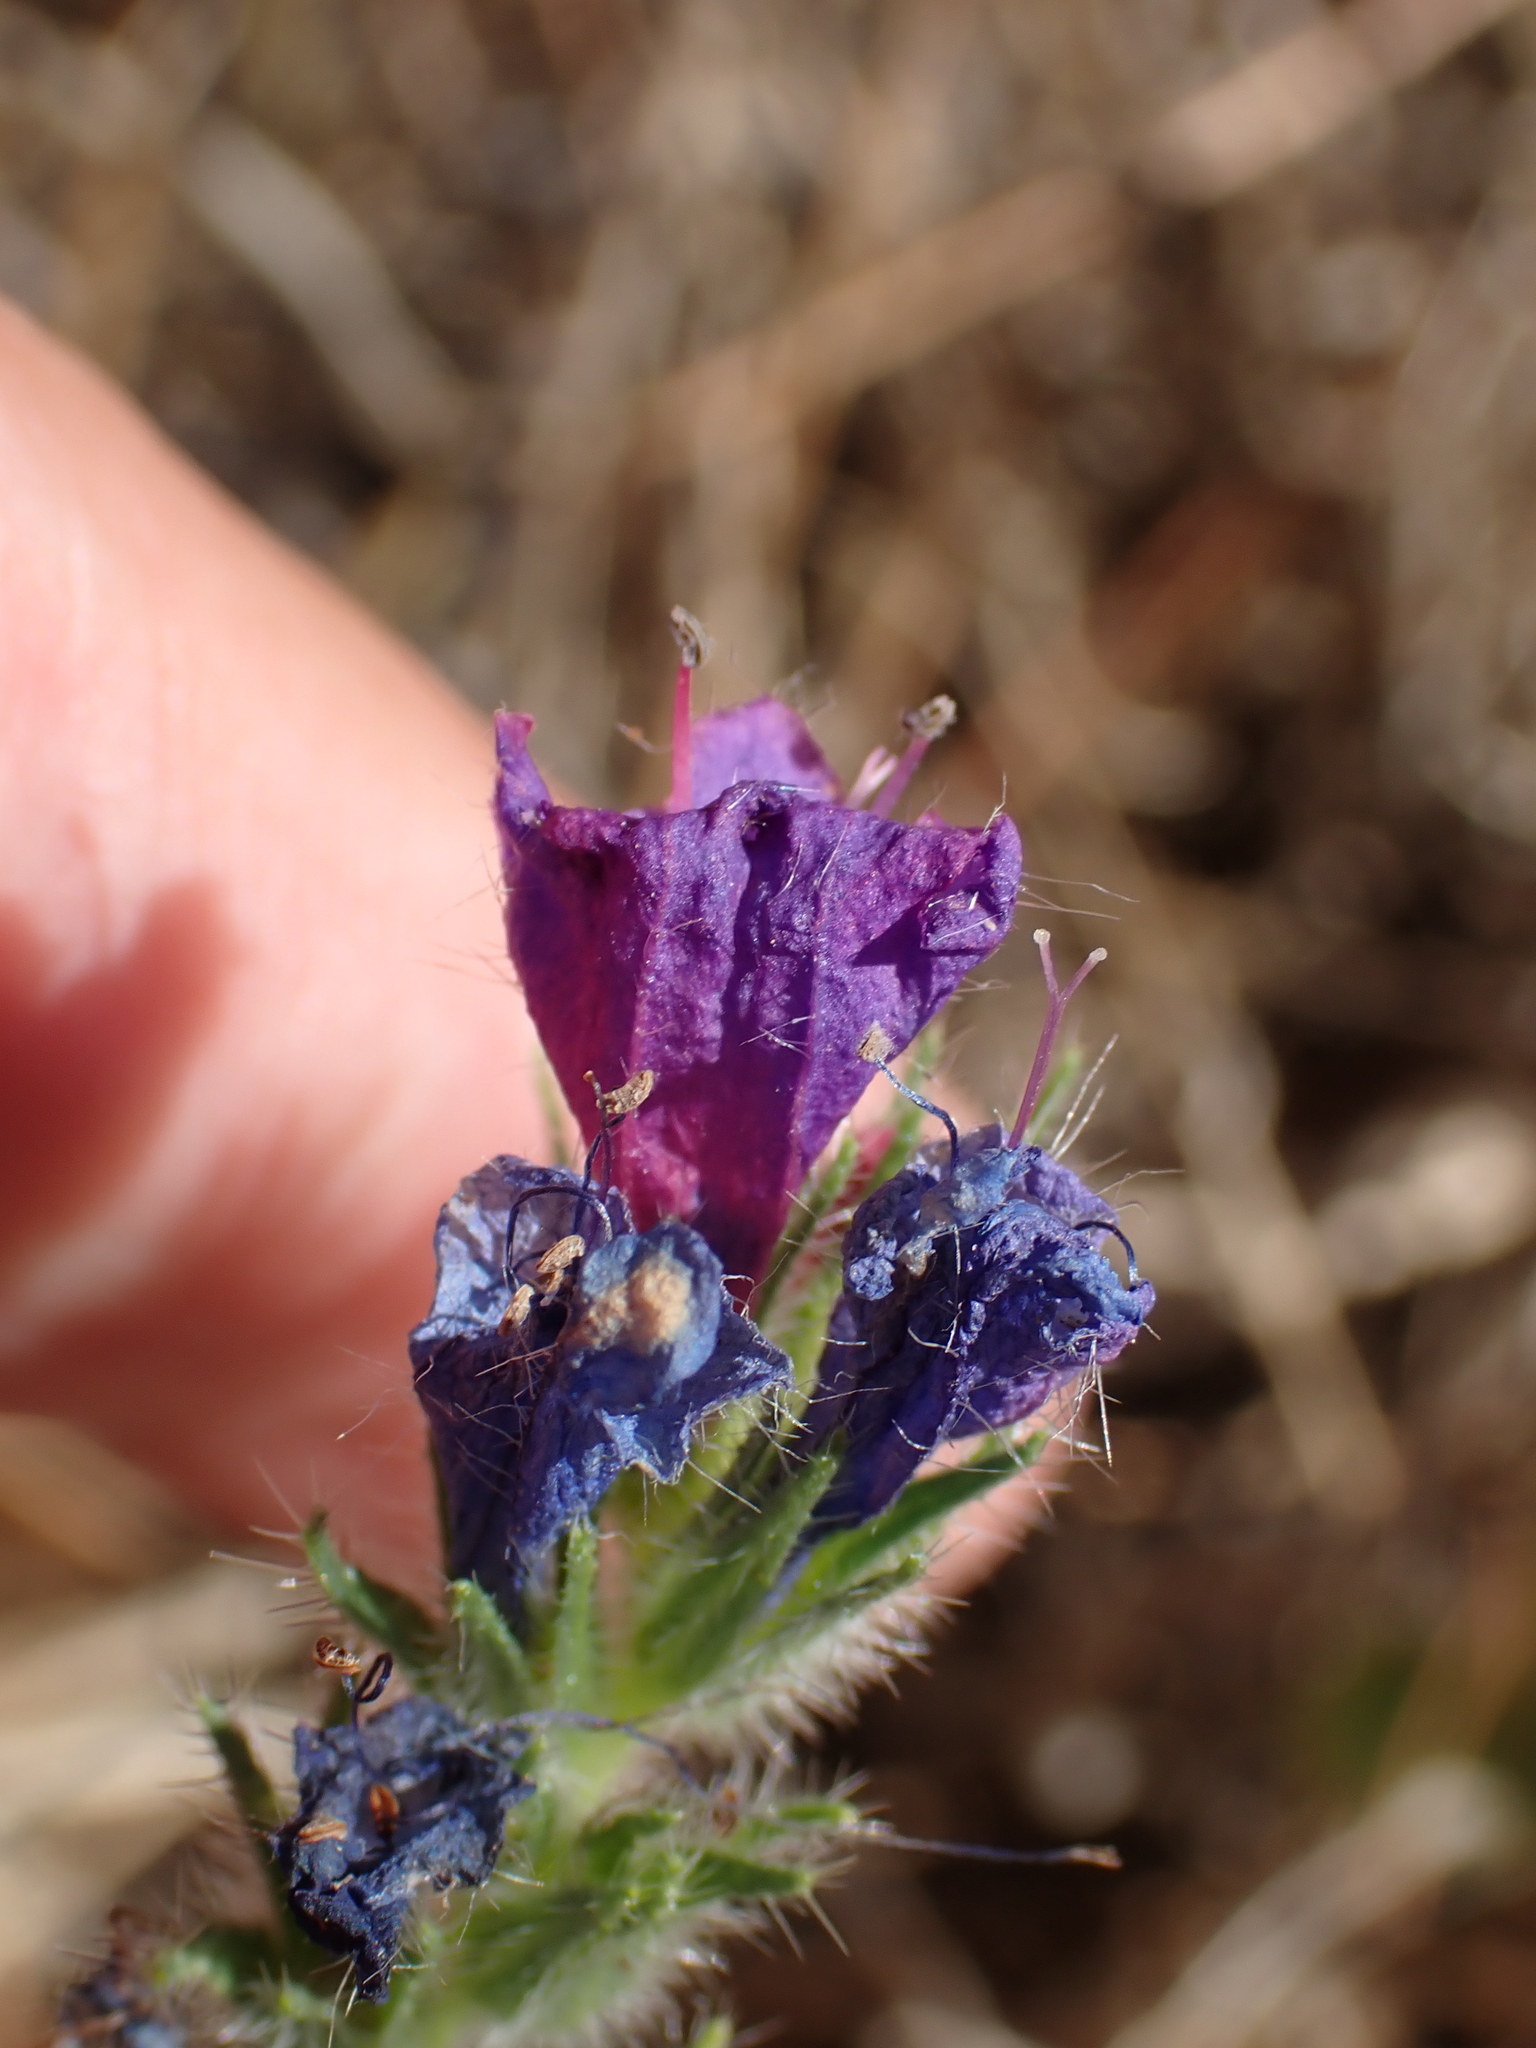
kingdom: Plantae
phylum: Tracheophyta
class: Magnoliopsida
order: Boraginales
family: Boraginaceae
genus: Echium
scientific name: Echium plantagineum
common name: Purple viper's-bugloss
